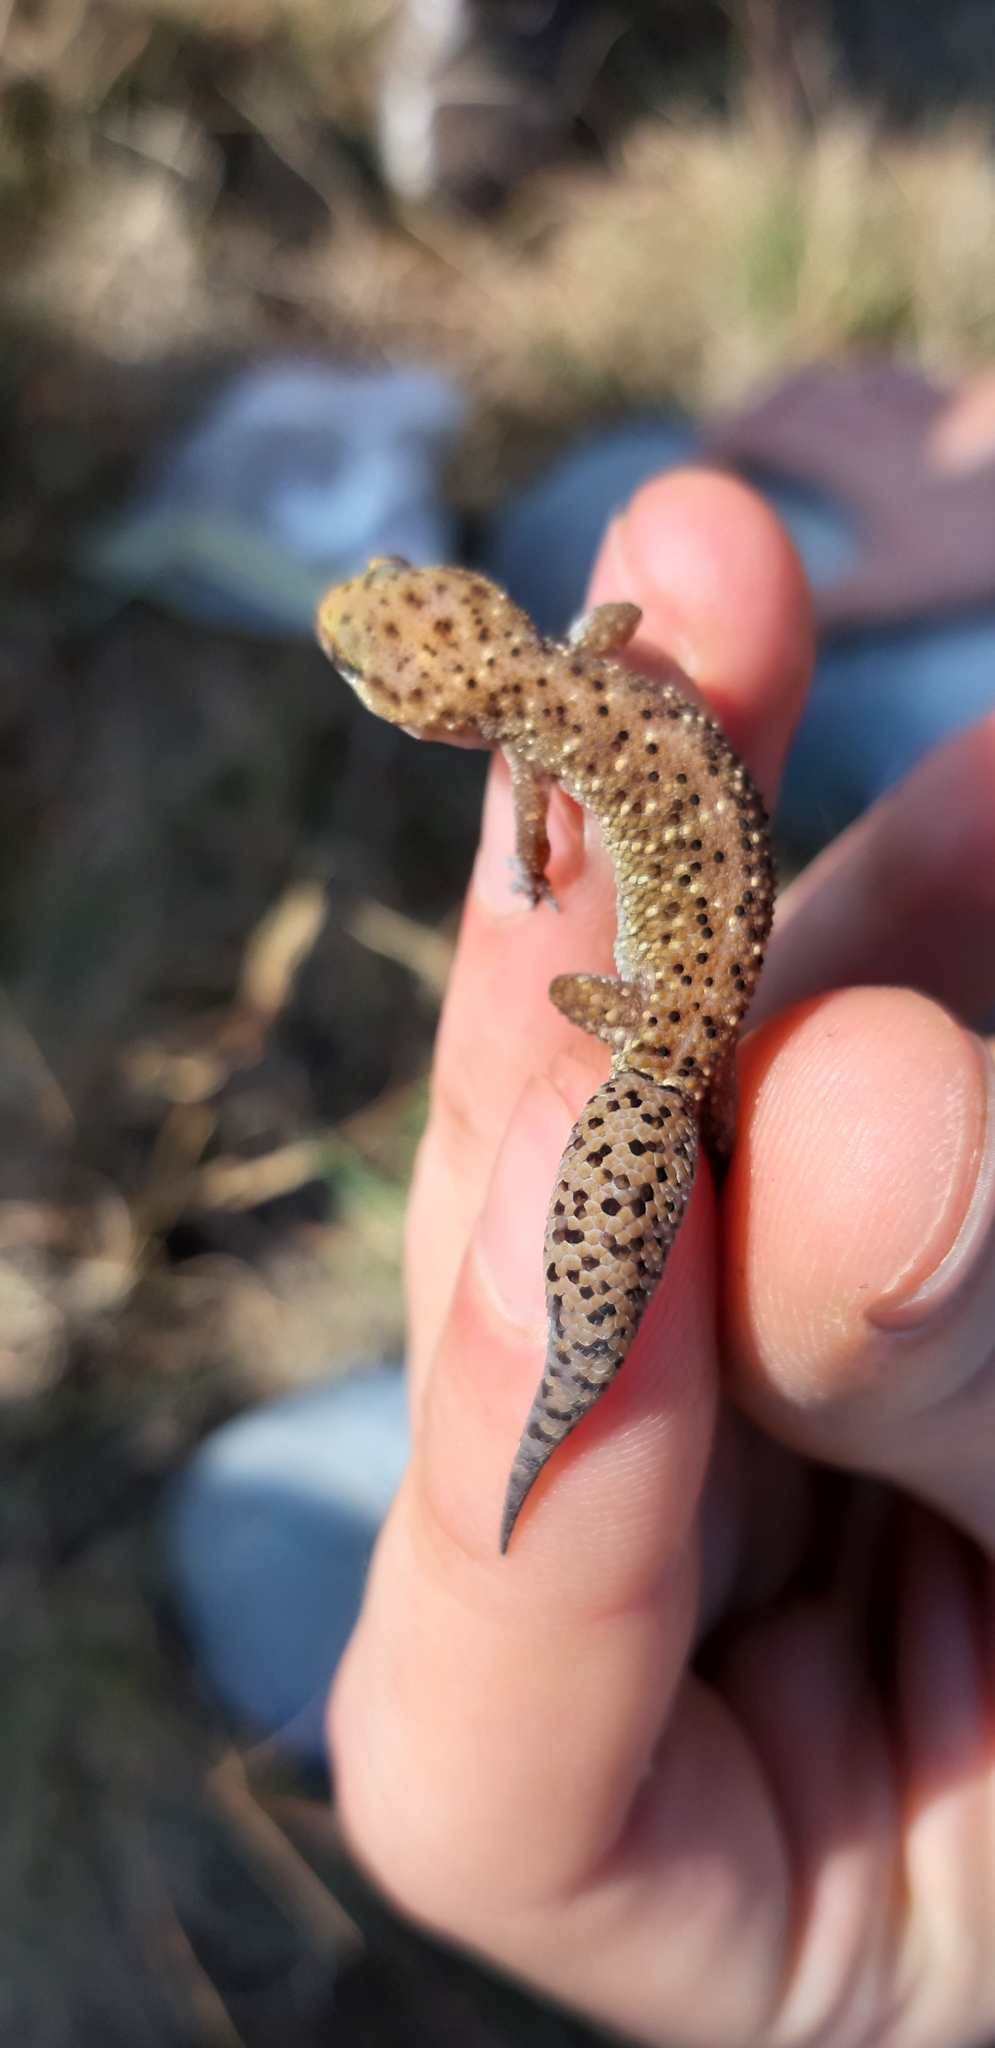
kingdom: Animalia
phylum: Chordata
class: Squamata
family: Gekkonidae
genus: Pachydactylus
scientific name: Pachydactylus affinis
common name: Transvaal gecko
